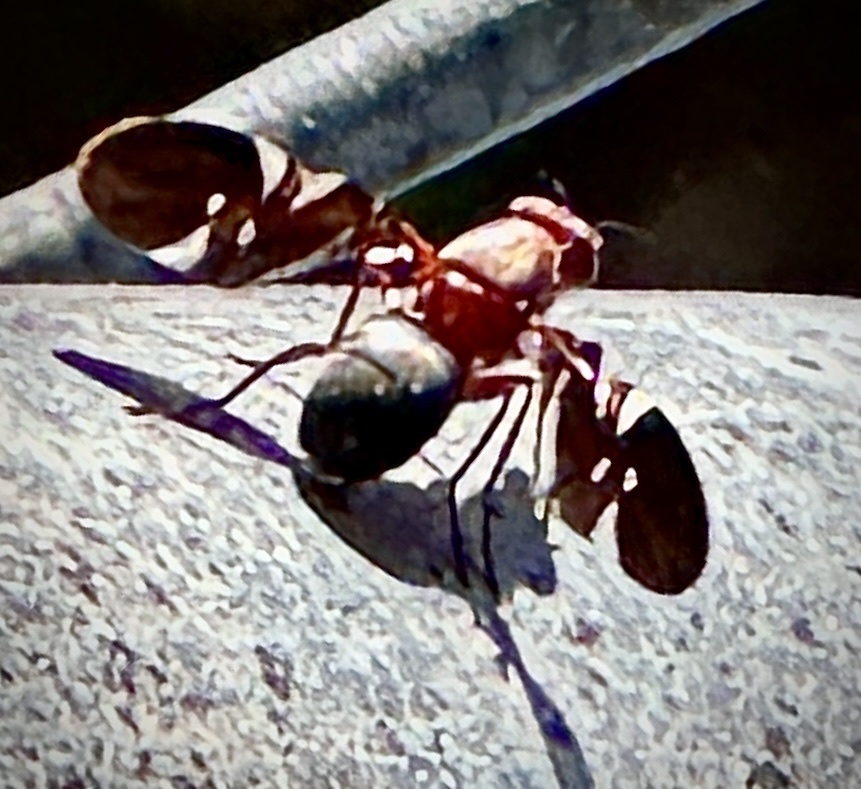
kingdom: Animalia
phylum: Arthropoda
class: Insecta
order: Diptera
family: Ulidiidae
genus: Delphinia
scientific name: Delphinia picta
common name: Common picture-winged fly
